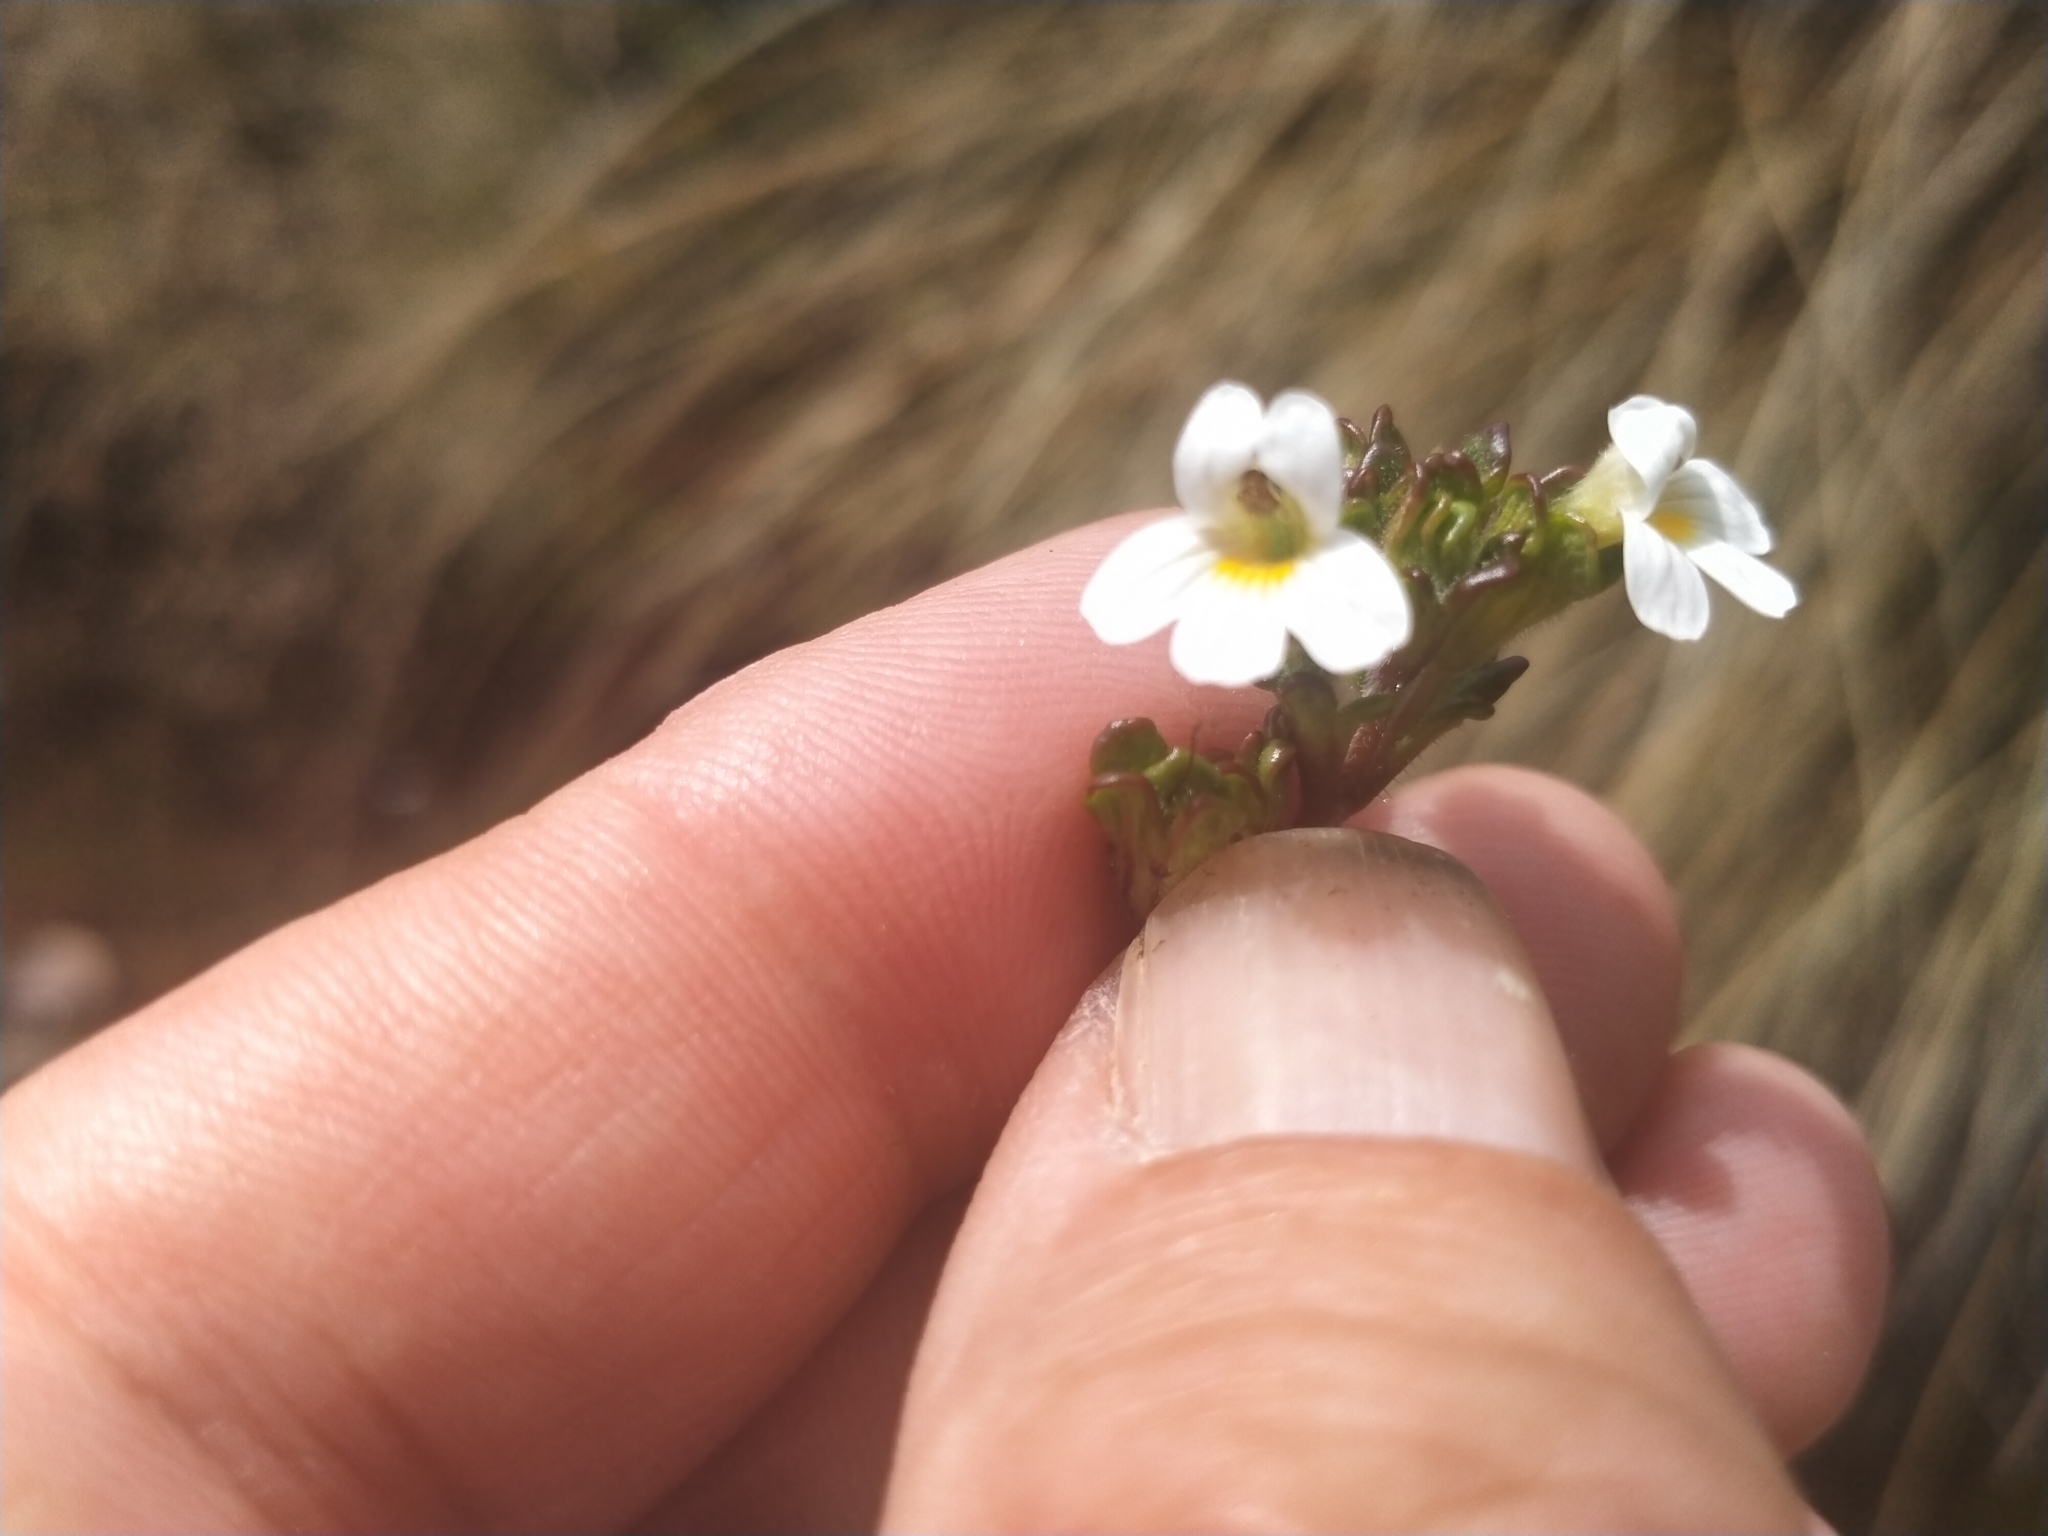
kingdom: Plantae
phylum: Tracheophyta
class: Magnoliopsida
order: Lamiales
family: Orobanchaceae
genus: Euphrasia
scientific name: Euphrasia australis
